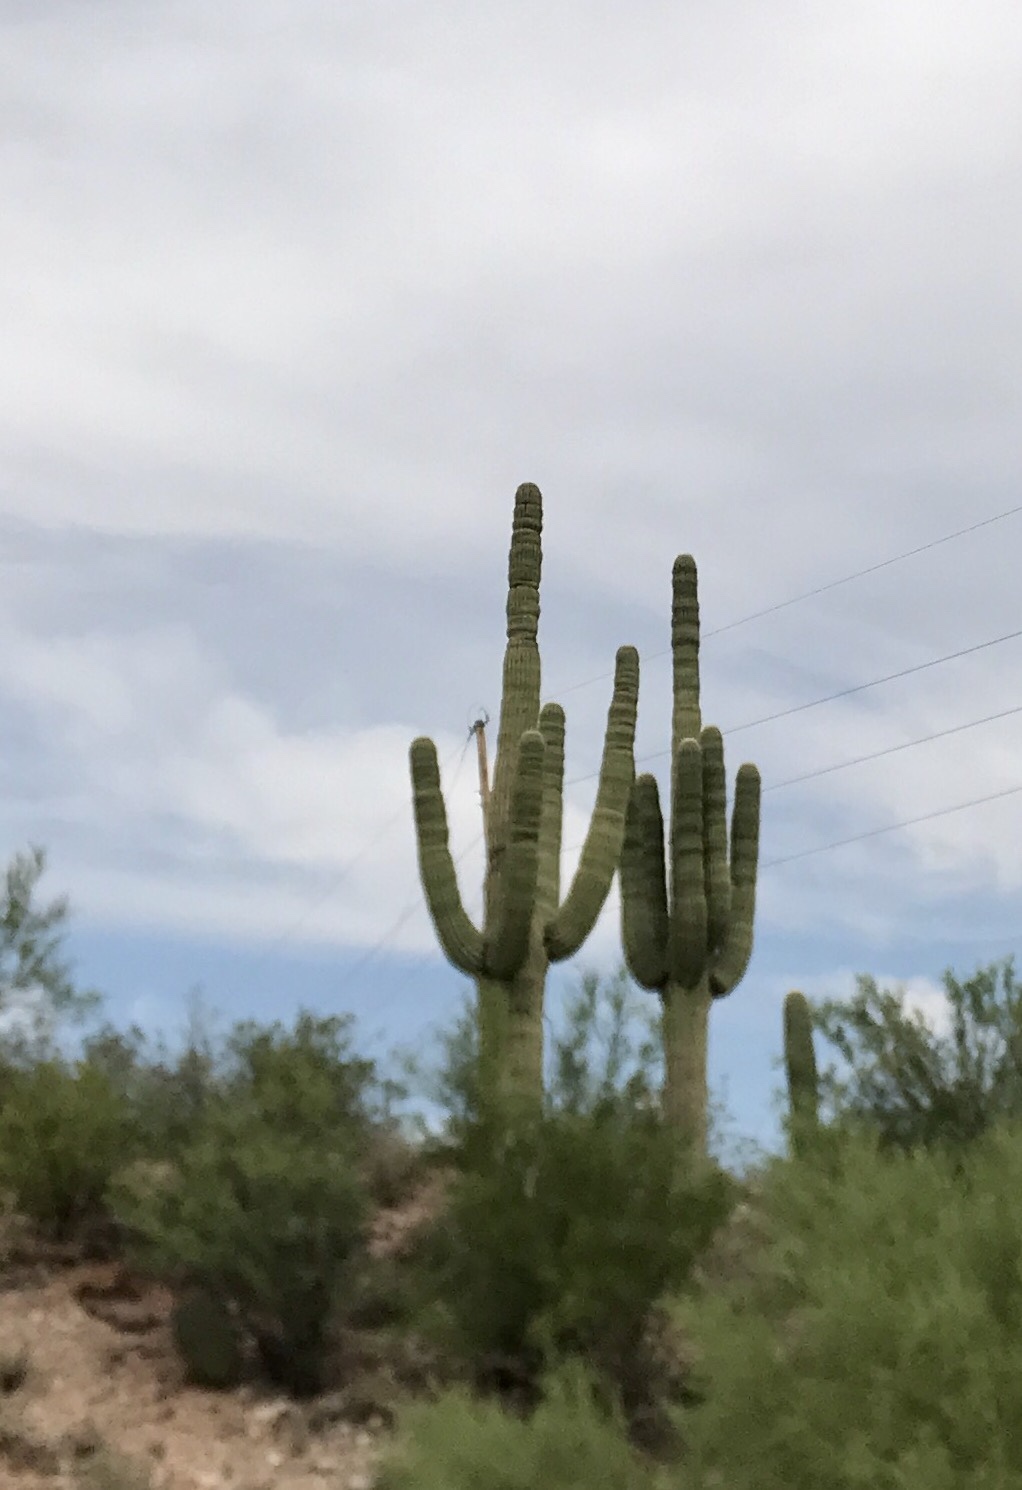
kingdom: Plantae
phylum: Tracheophyta
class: Magnoliopsida
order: Caryophyllales
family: Cactaceae
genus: Carnegiea
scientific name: Carnegiea gigantea
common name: Saguaro
